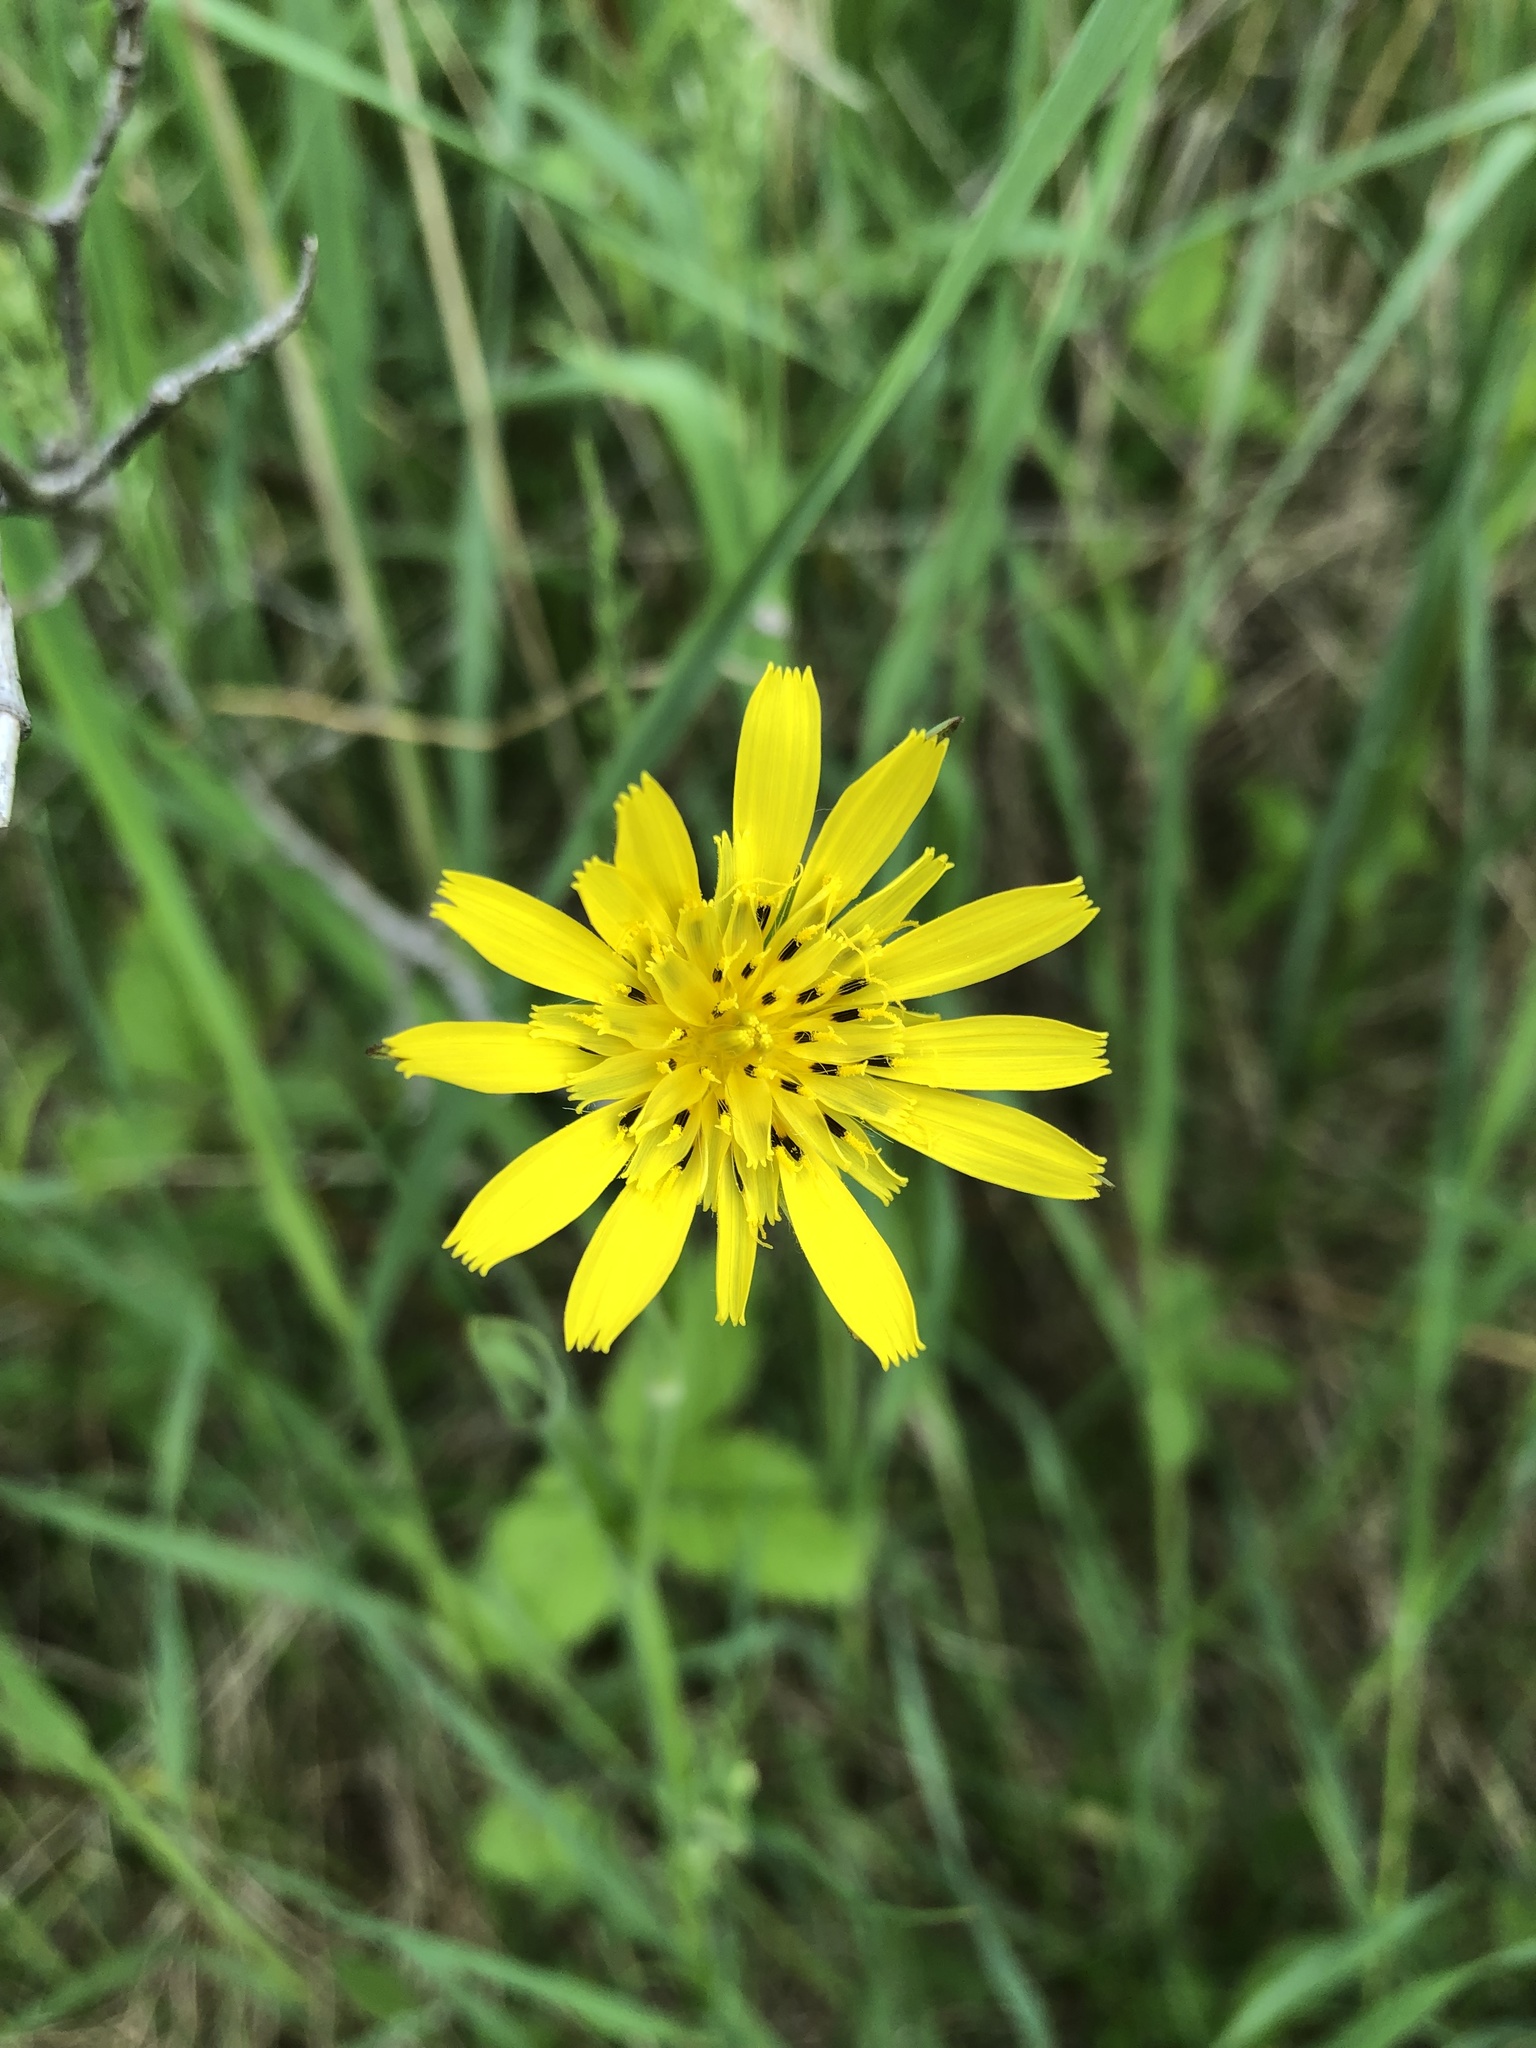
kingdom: Plantae
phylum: Tracheophyta
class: Magnoliopsida
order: Asterales
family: Asteraceae
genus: Tragopogon
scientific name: Tragopogon pratensis
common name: Goat's-beard
